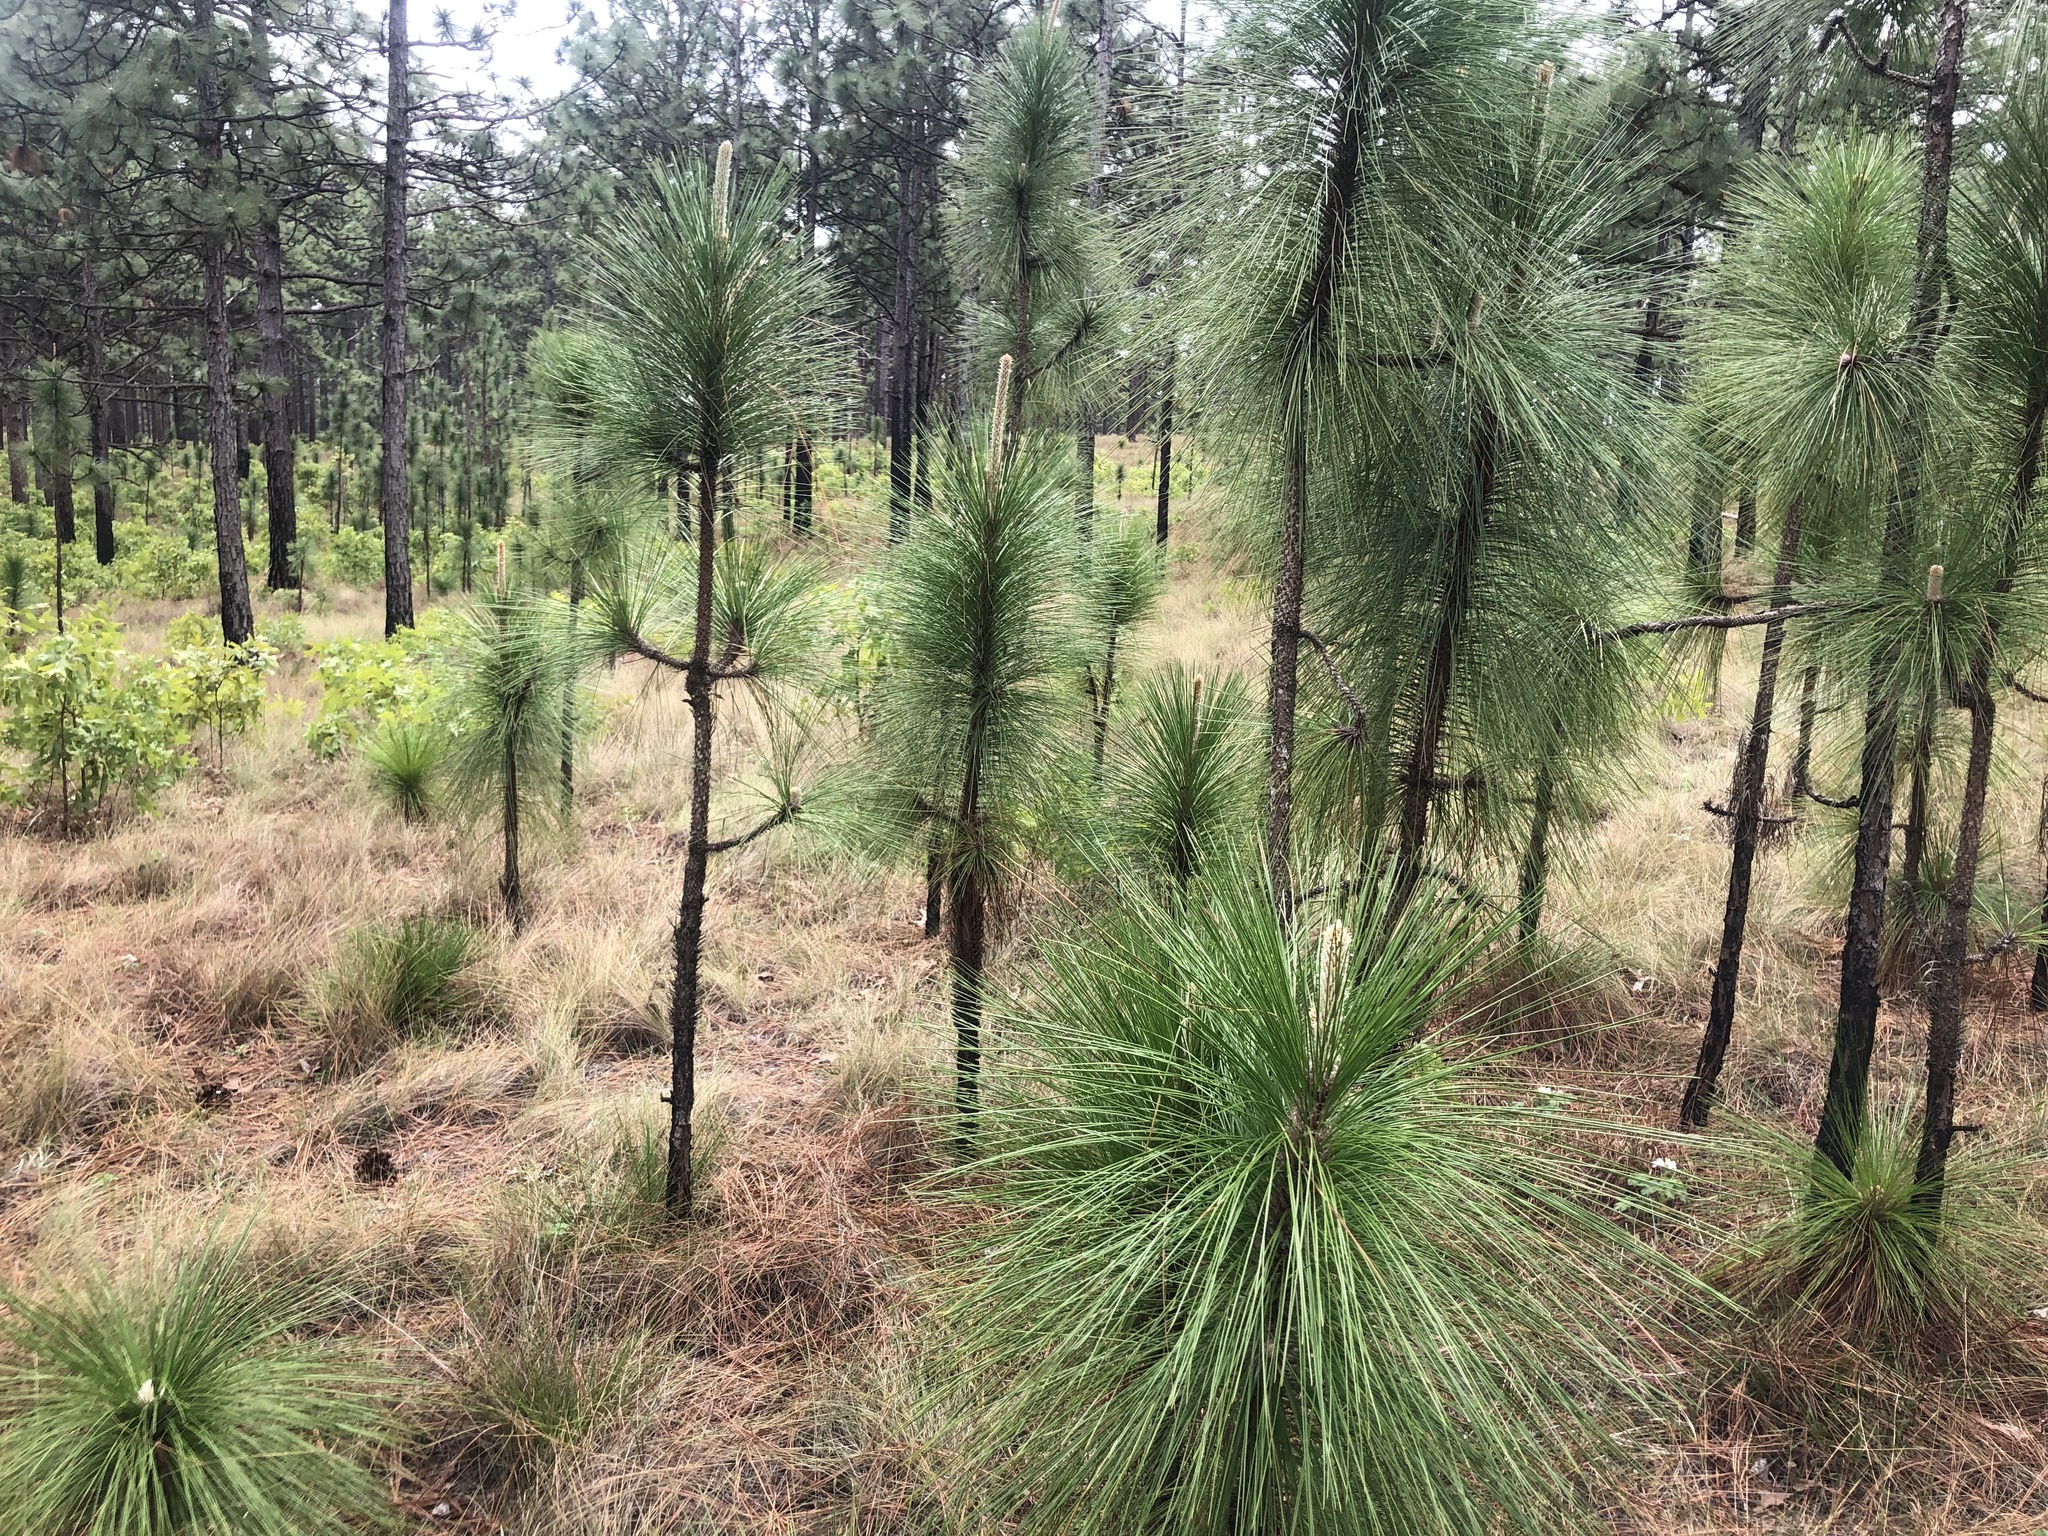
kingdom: Plantae
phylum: Tracheophyta
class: Pinopsida
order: Pinales
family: Pinaceae
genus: Pinus
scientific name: Pinus palustris
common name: Longleaf pine
